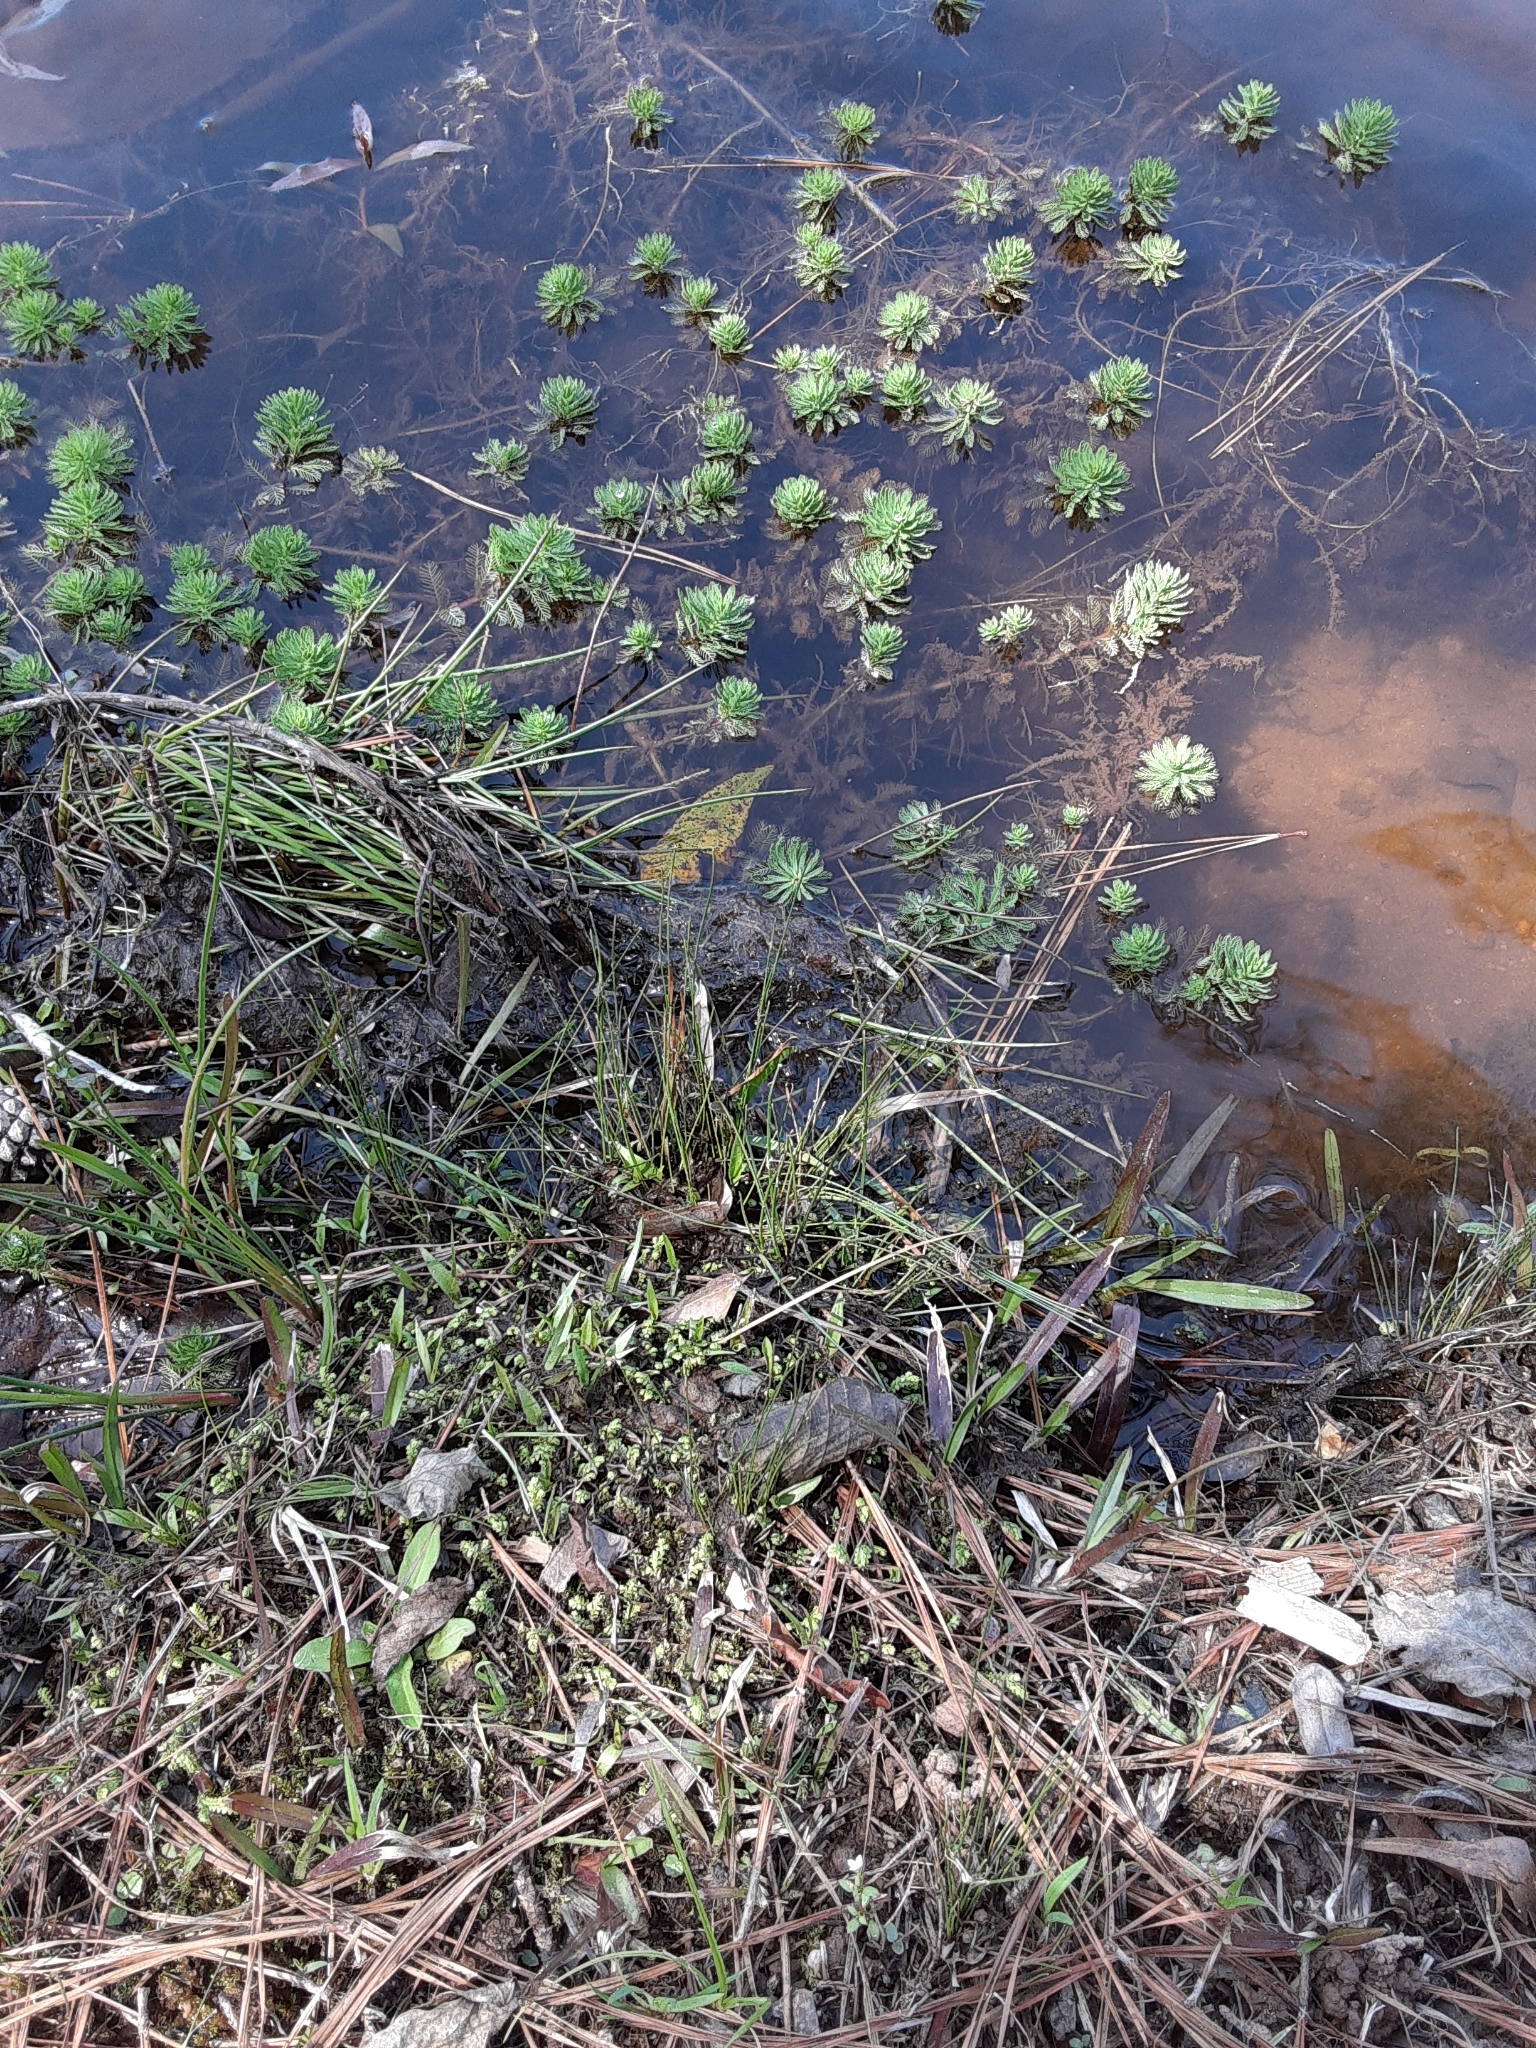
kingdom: Plantae
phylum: Tracheophyta
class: Magnoliopsida
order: Saxifragales
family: Haloragaceae
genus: Myriophyllum
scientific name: Myriophyllum aquaticum
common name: Parrot's feather
